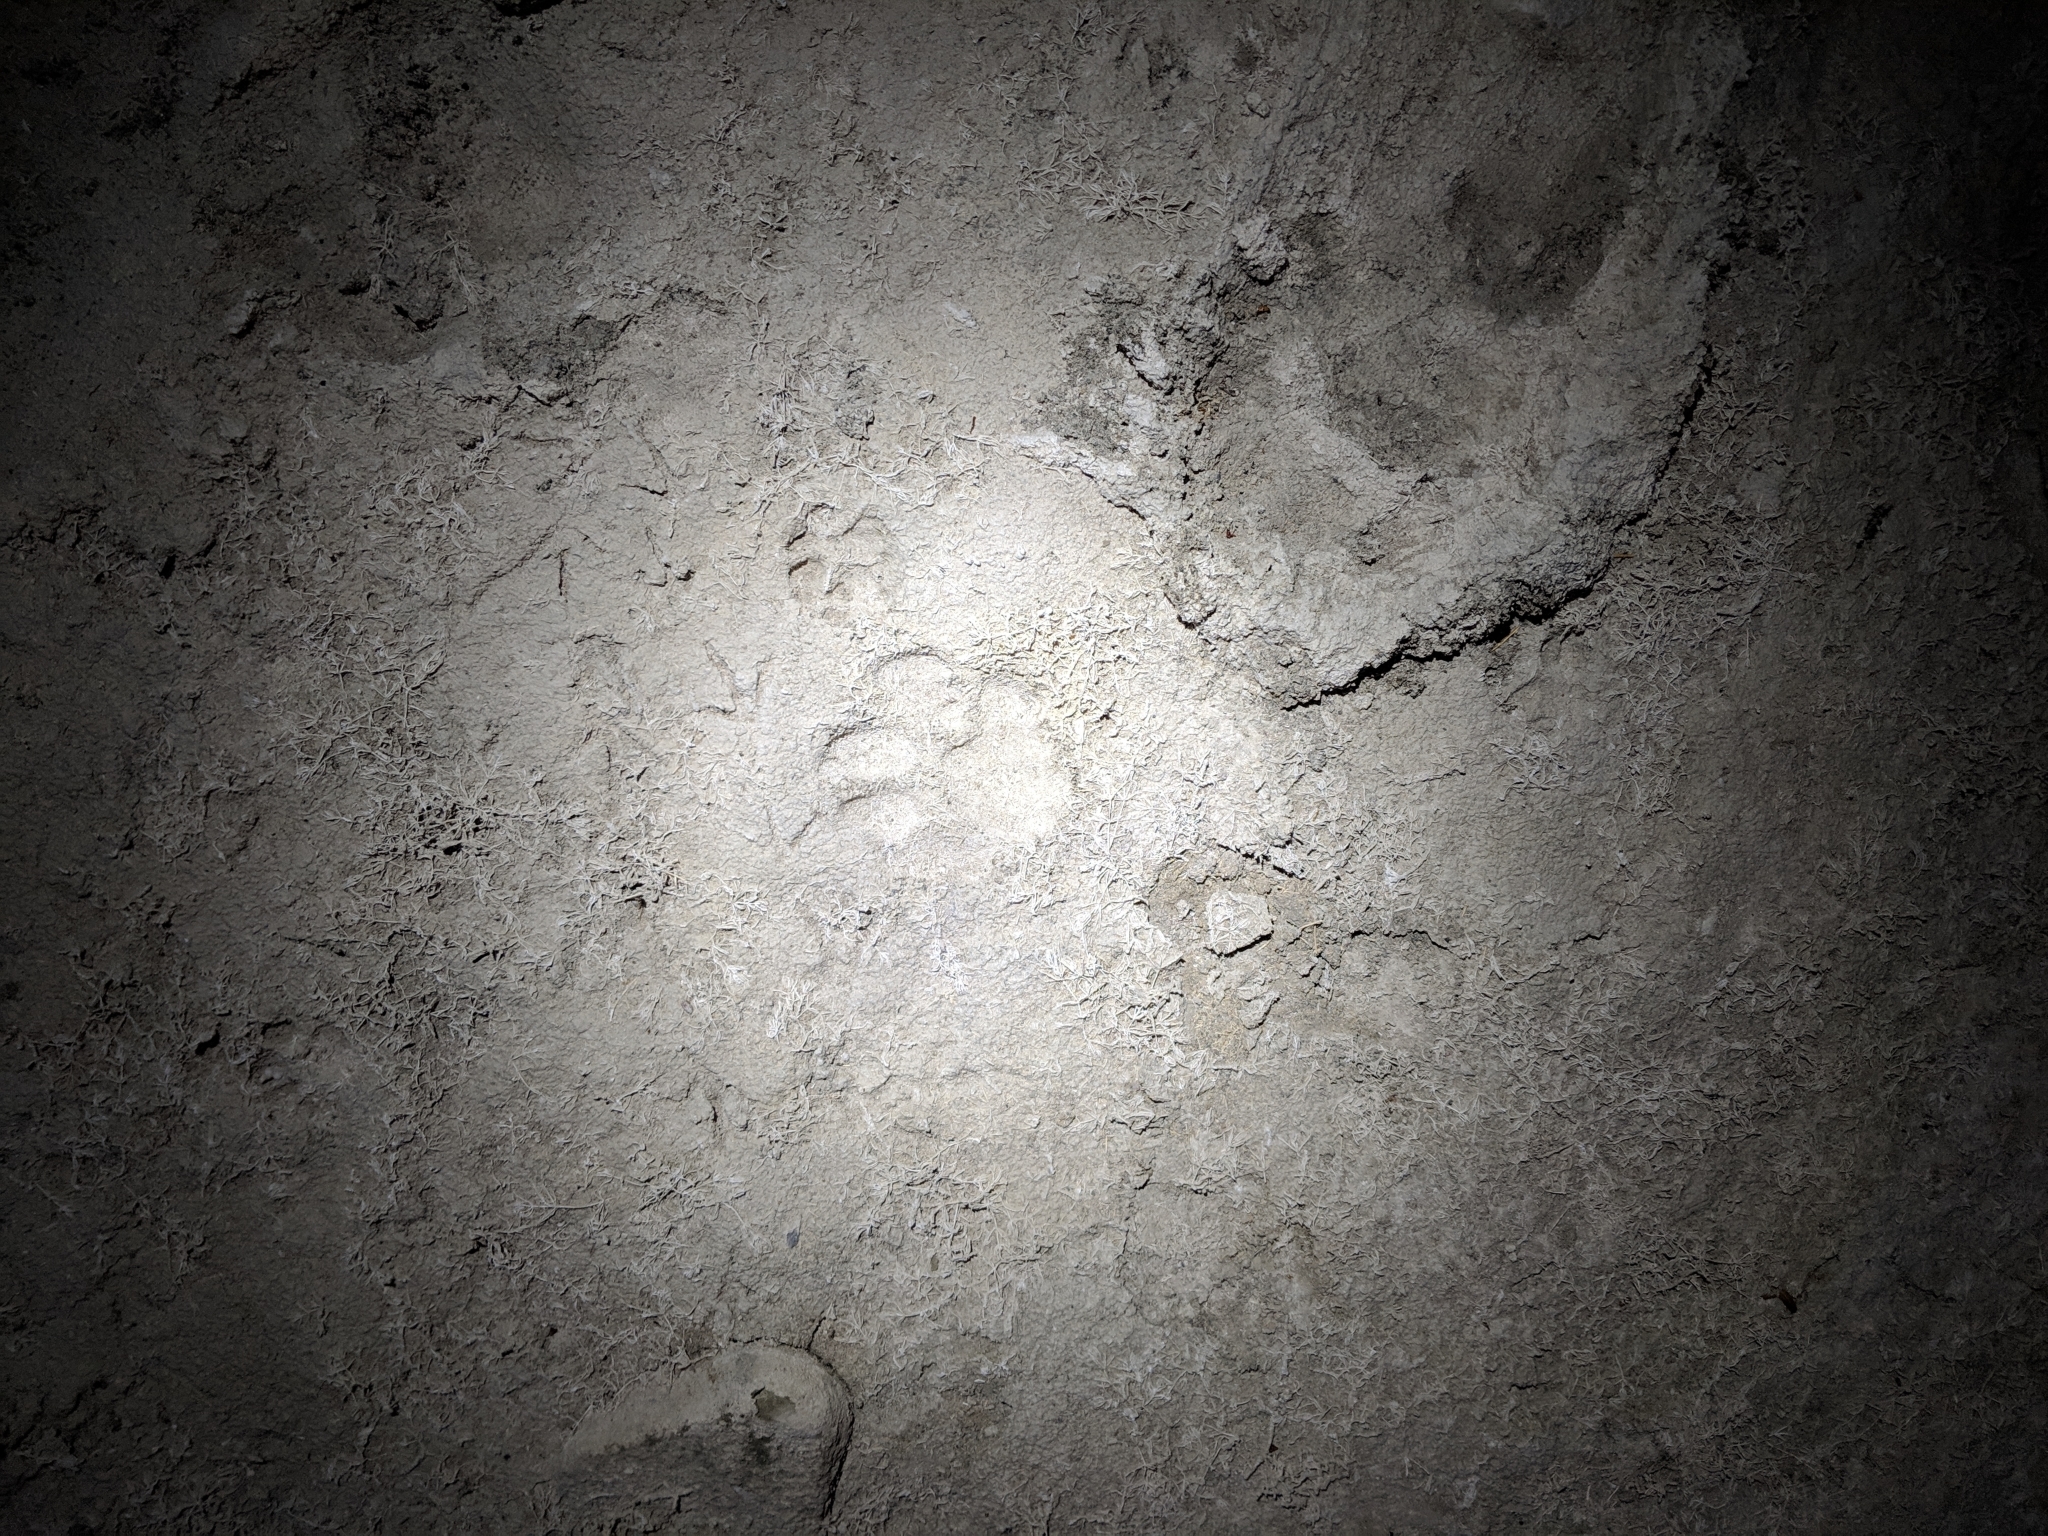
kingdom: Animalia
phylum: Chordata
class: Mammalia
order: Carnivora
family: Felidae
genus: Puma
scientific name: Puma concolor
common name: Puma
